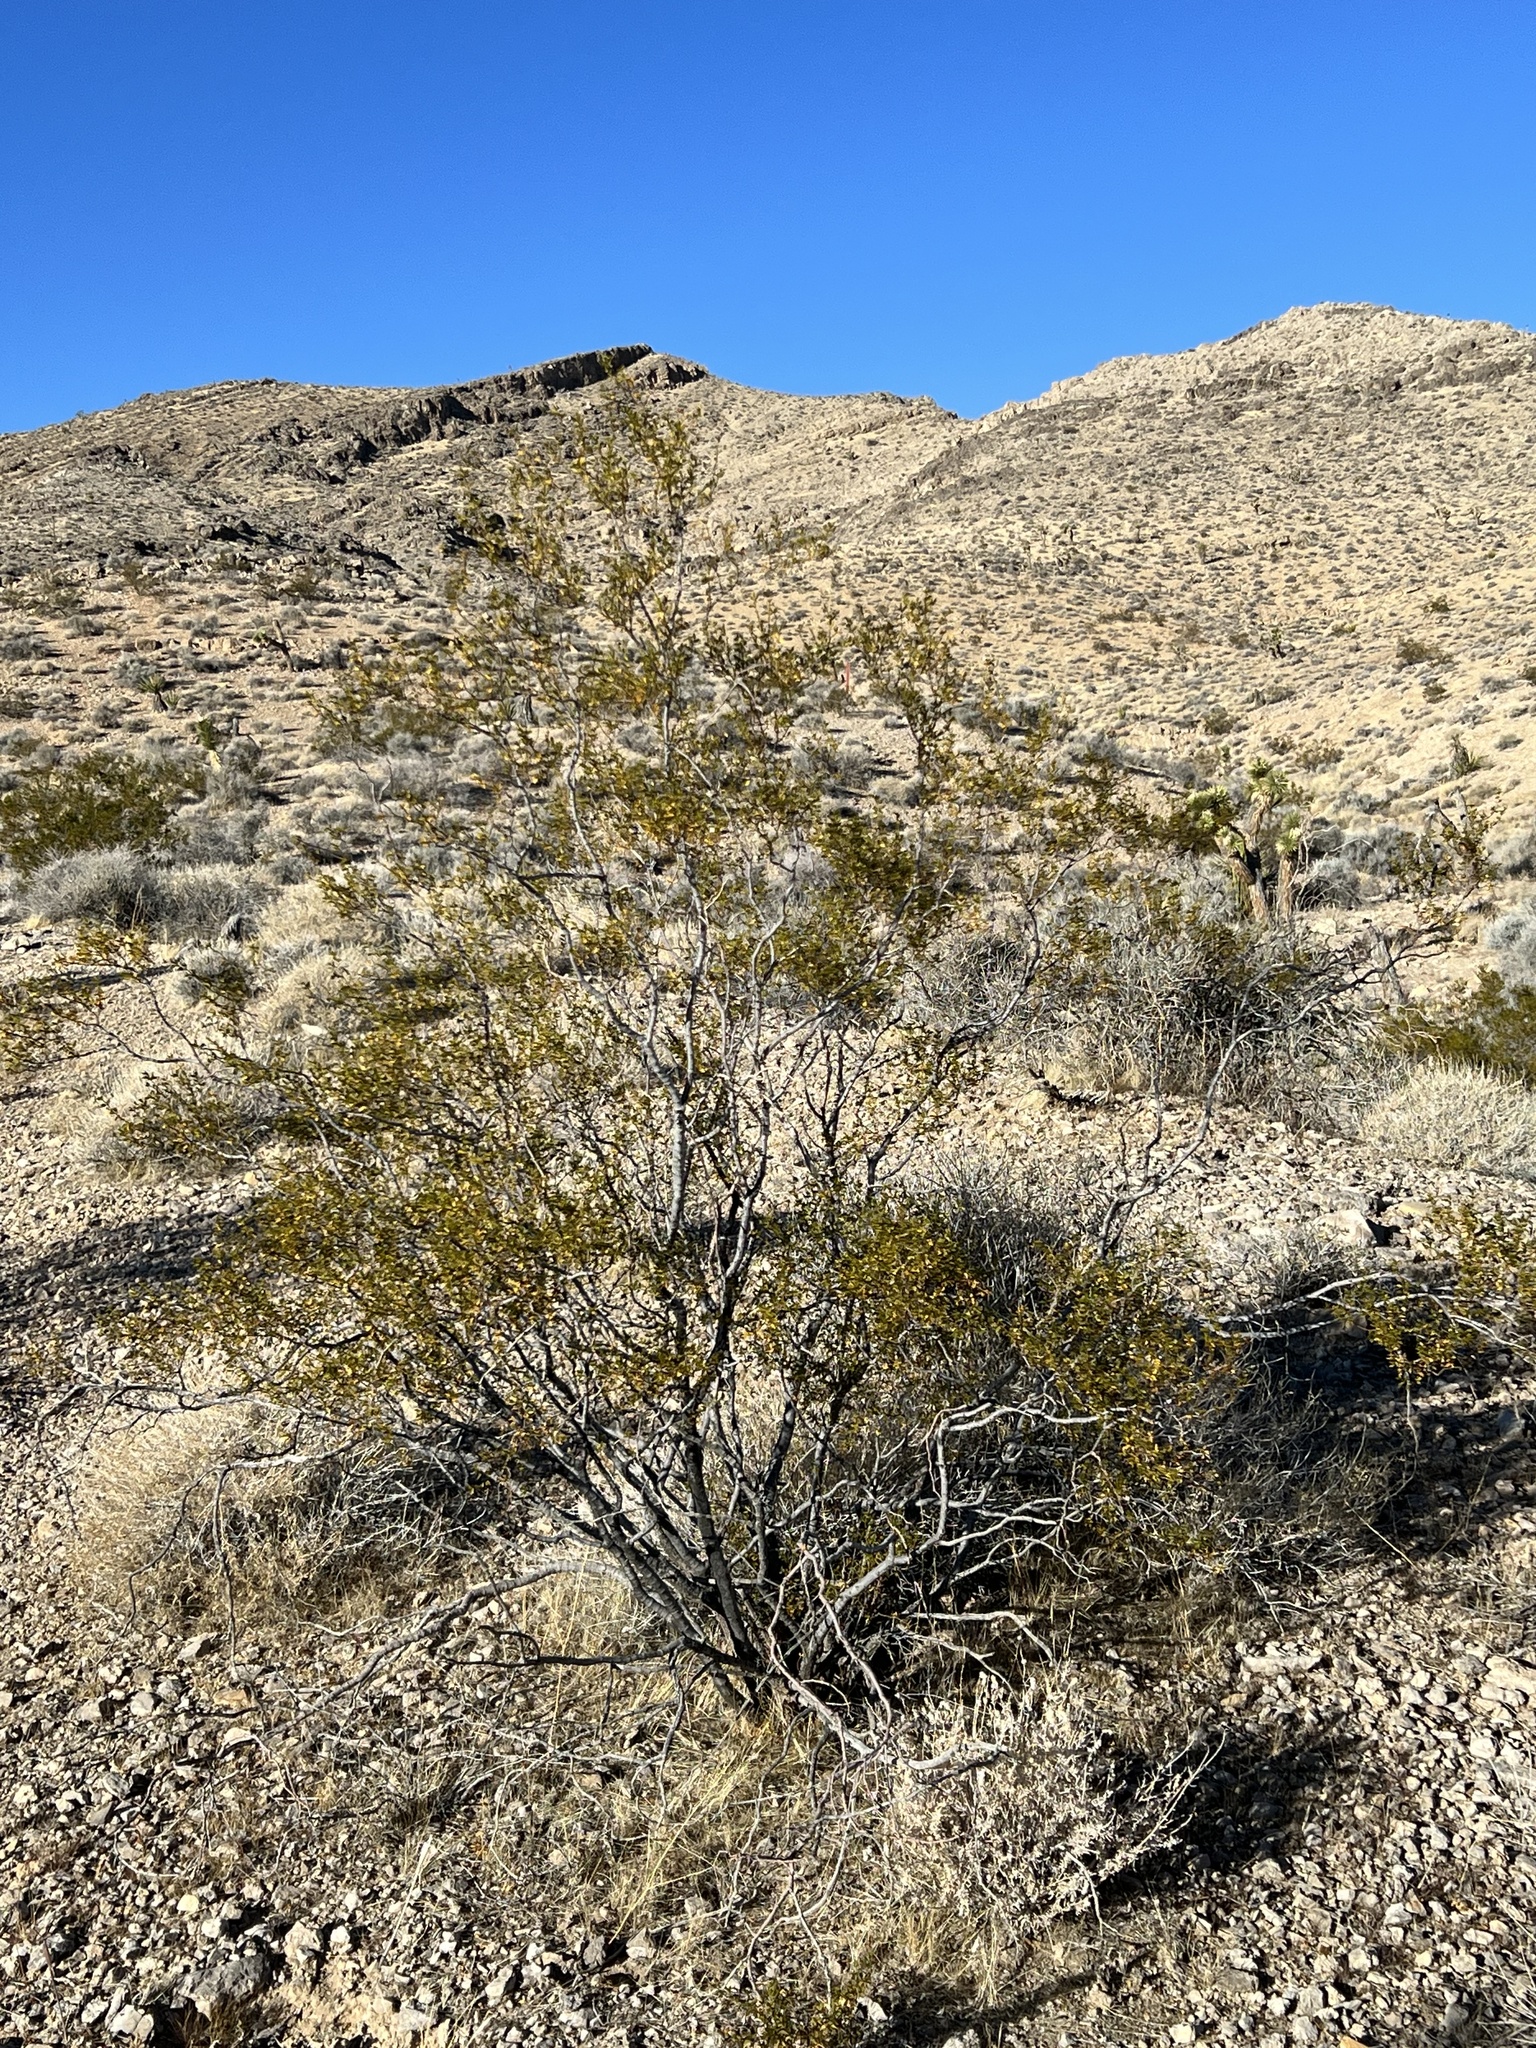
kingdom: Plantae
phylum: Tracheophyta
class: Magnoliopsida
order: Zygophyllales
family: Zygophyllaceae
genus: Larrea
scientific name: Larrea tridentata
